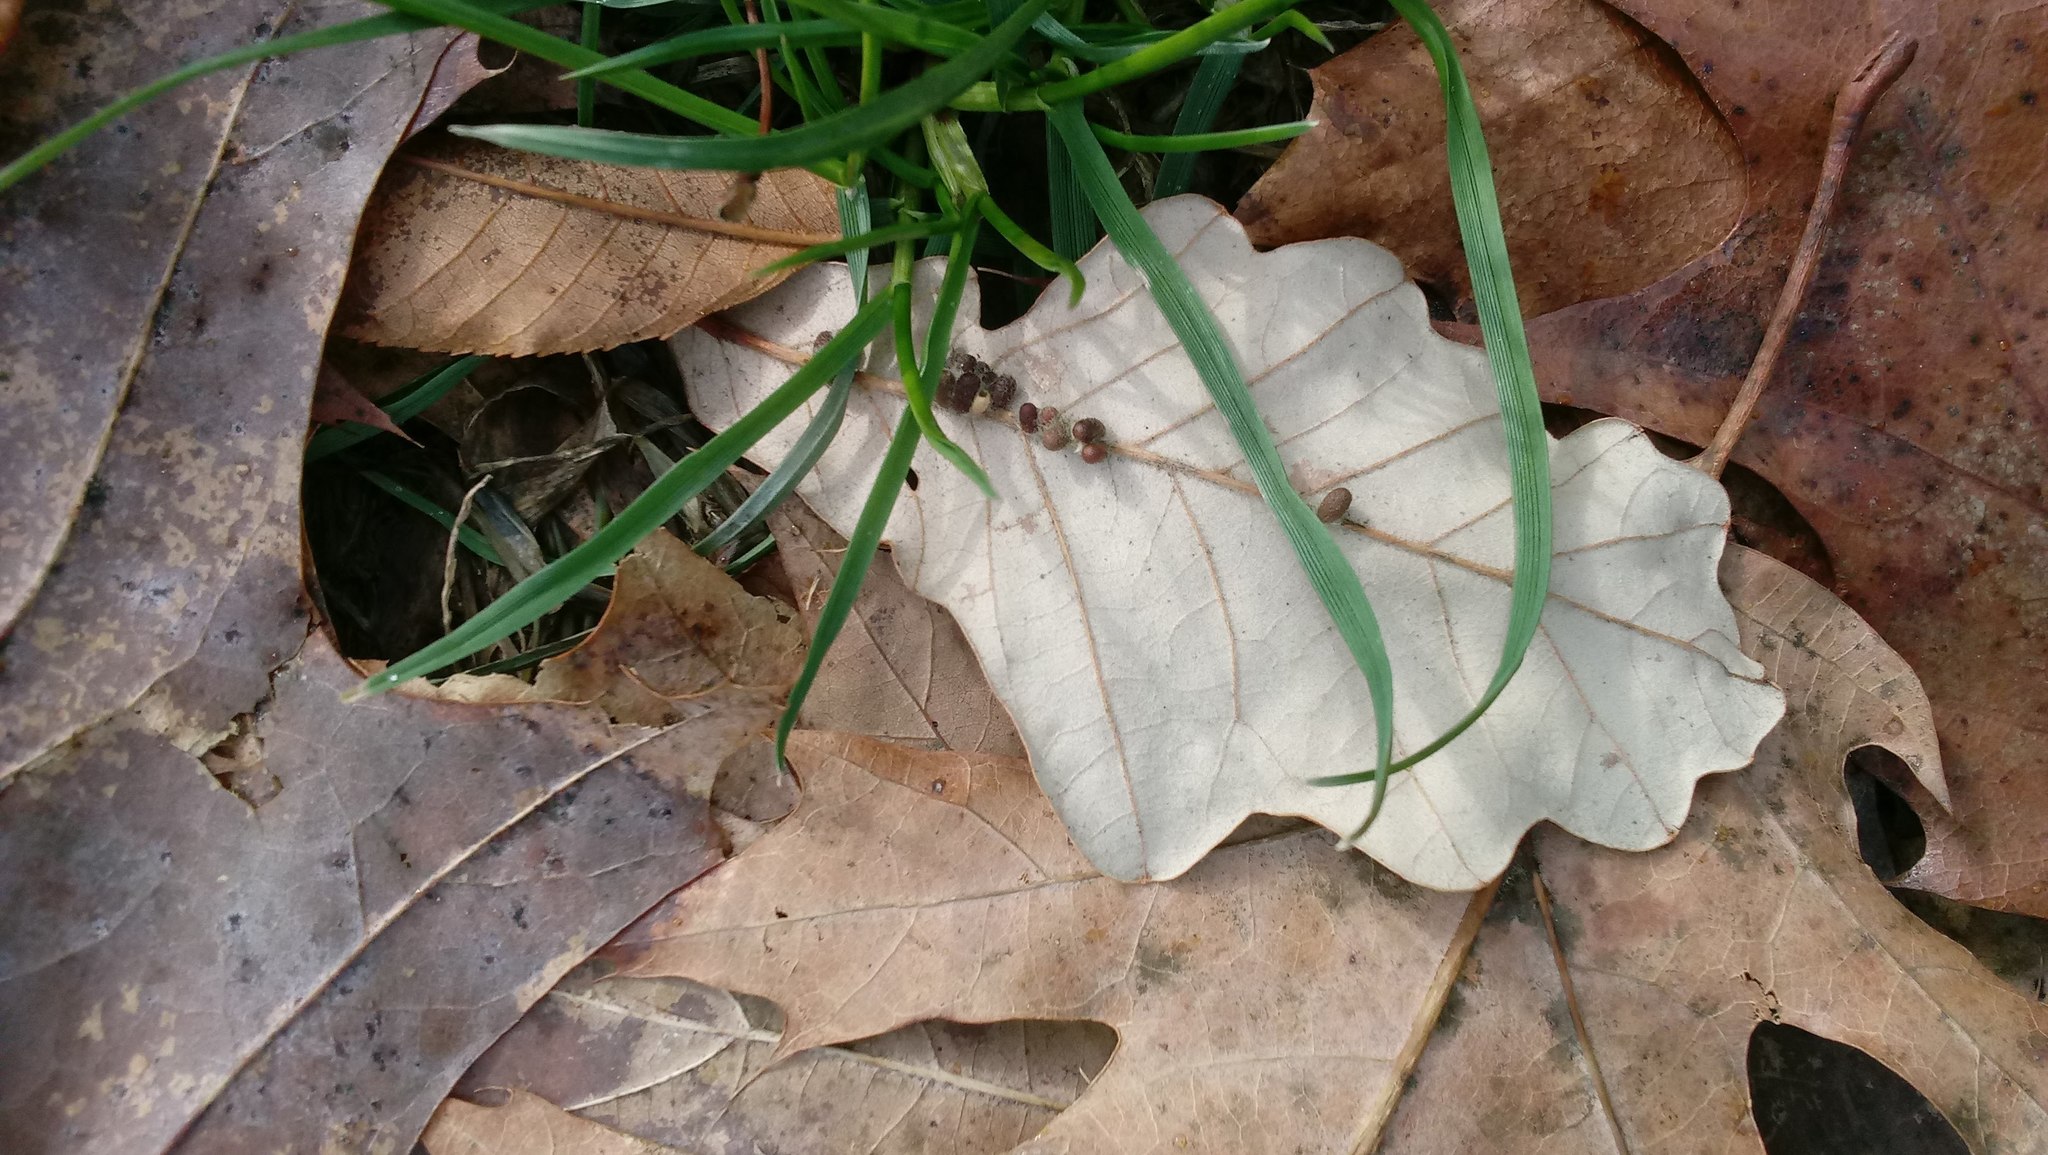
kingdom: Animalia
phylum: Arthropoda
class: Insecta
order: Hymenoptera
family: Cynipidae
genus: Andricus
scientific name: Andricus Druon ignotum
